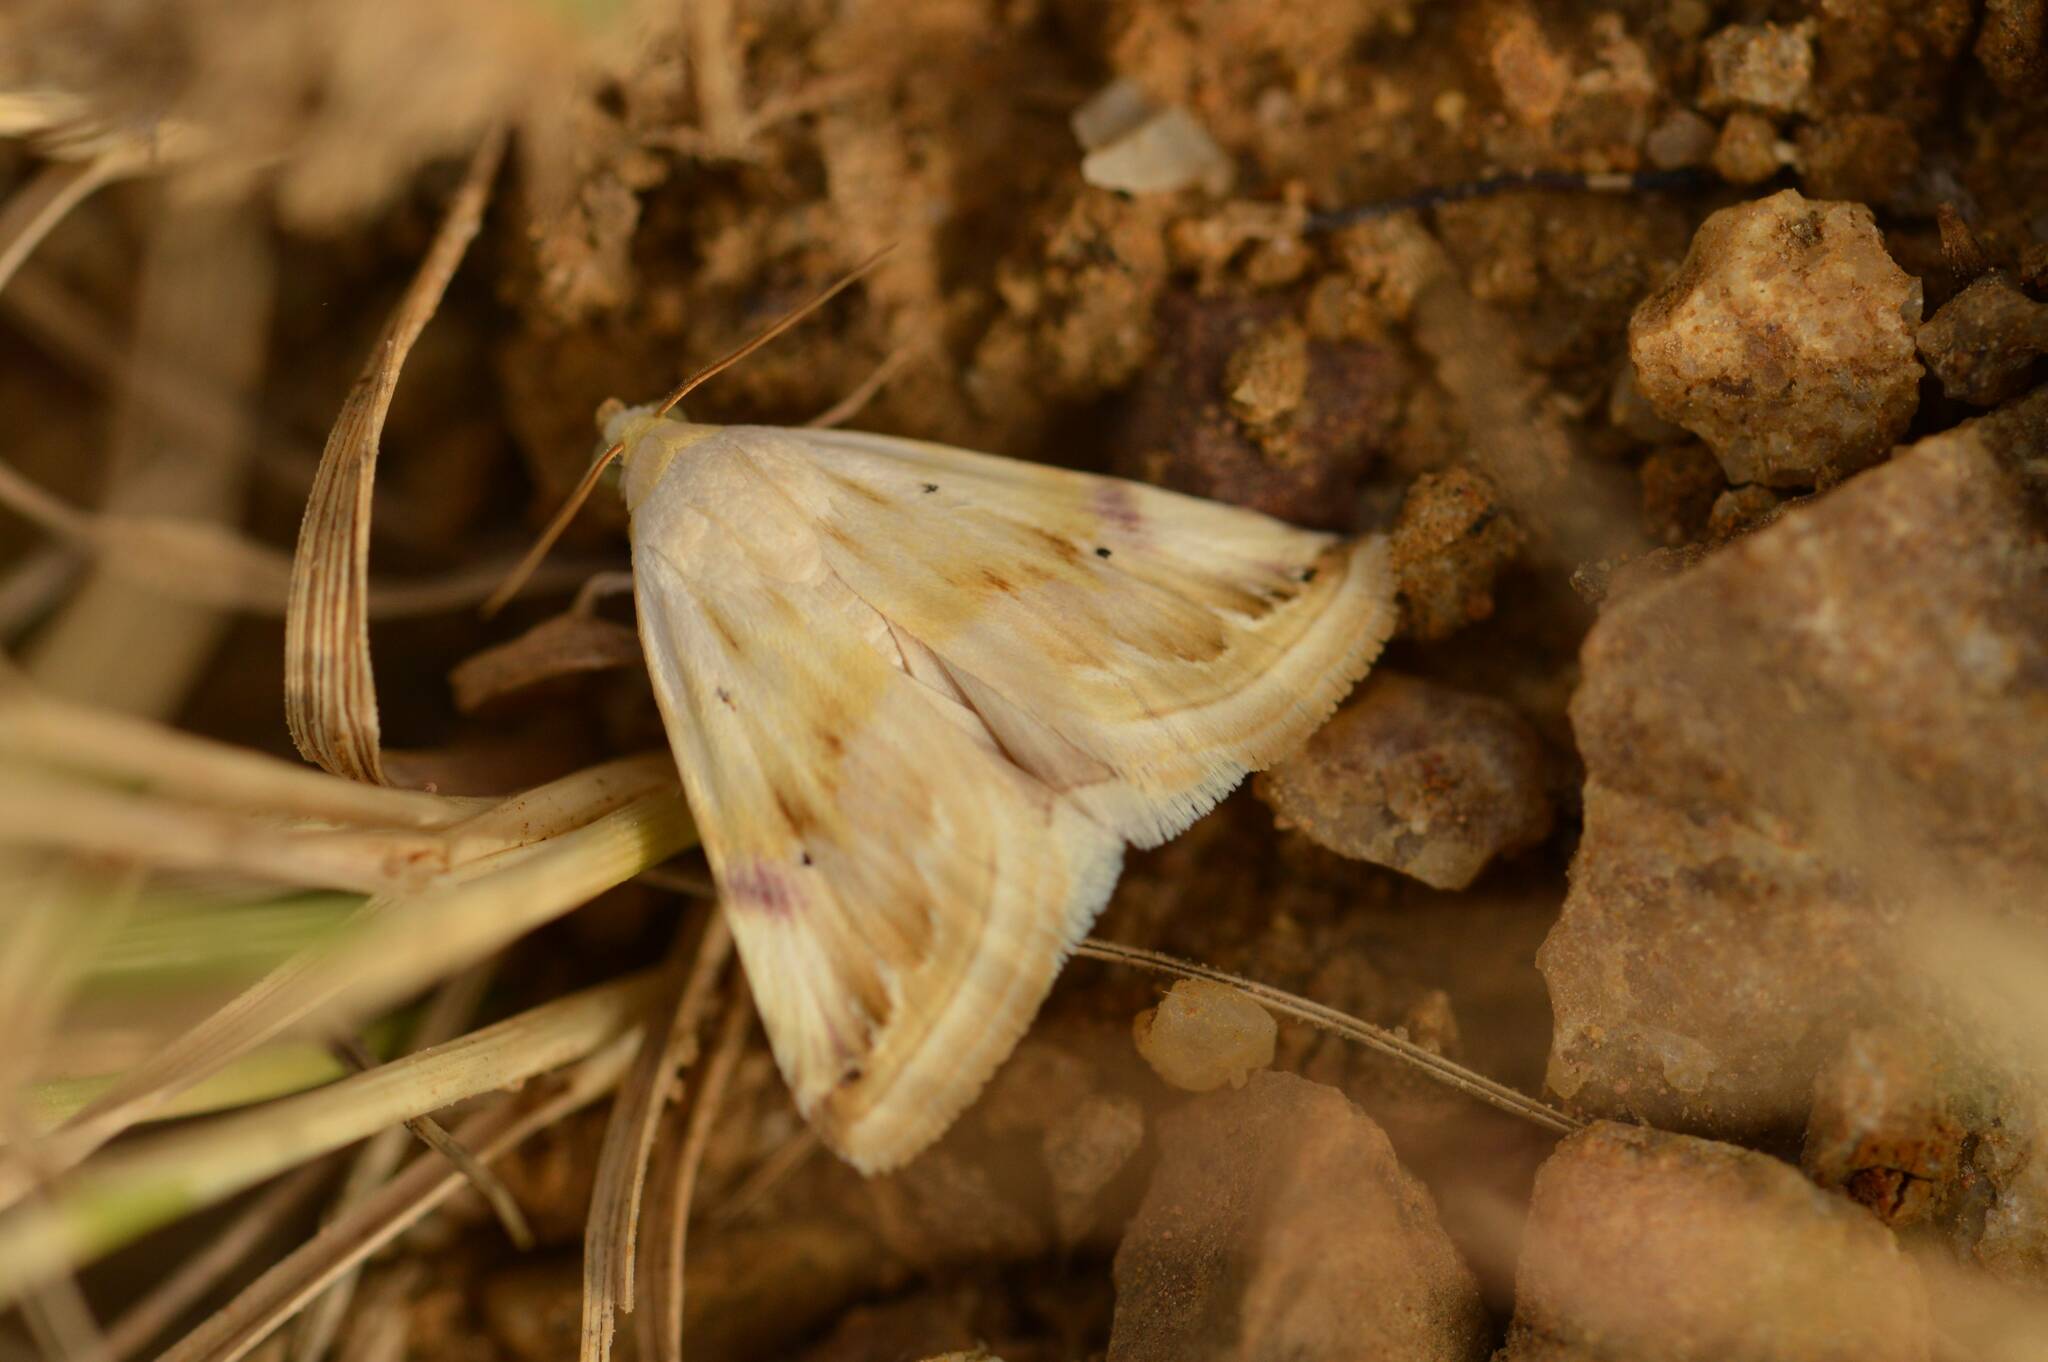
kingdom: Animalia
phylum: Arthropoda
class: Insecta
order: Lepidoptera
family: Noctuidae
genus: Eublemma
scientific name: Eublemma ostrina
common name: Purple marbled
